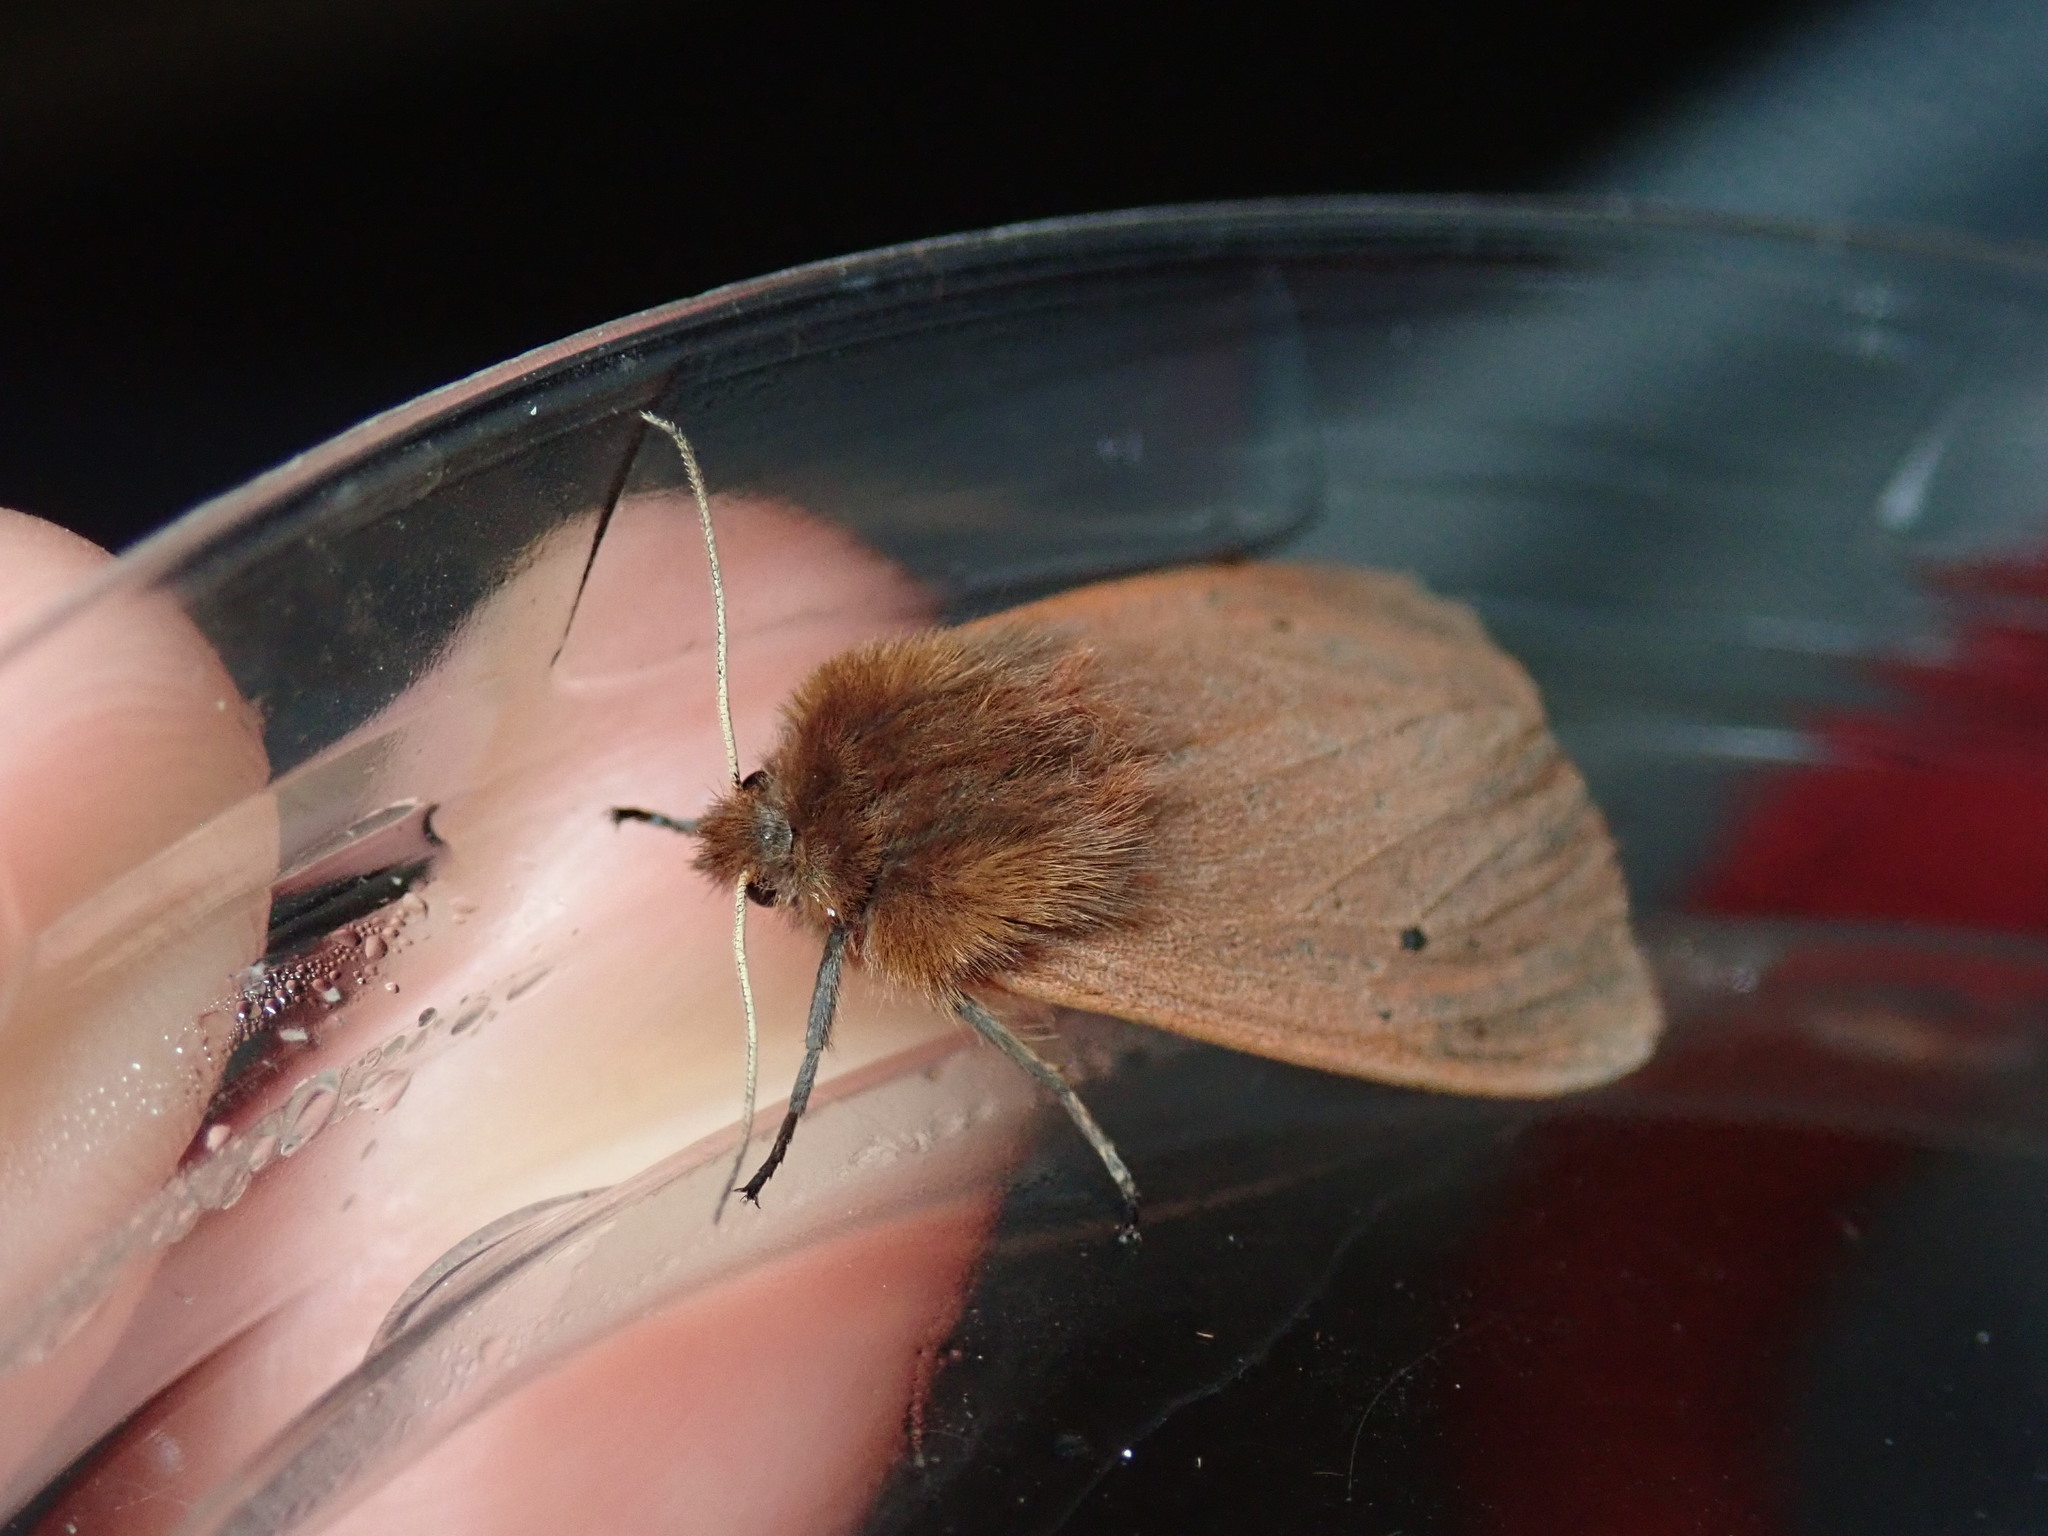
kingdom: Animalia
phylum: Arthropoda
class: Insecta
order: Lepidoptera
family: Erebidae
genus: Phragmatobia
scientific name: Phragmatobia fuliginosa
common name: Ruby tiger
